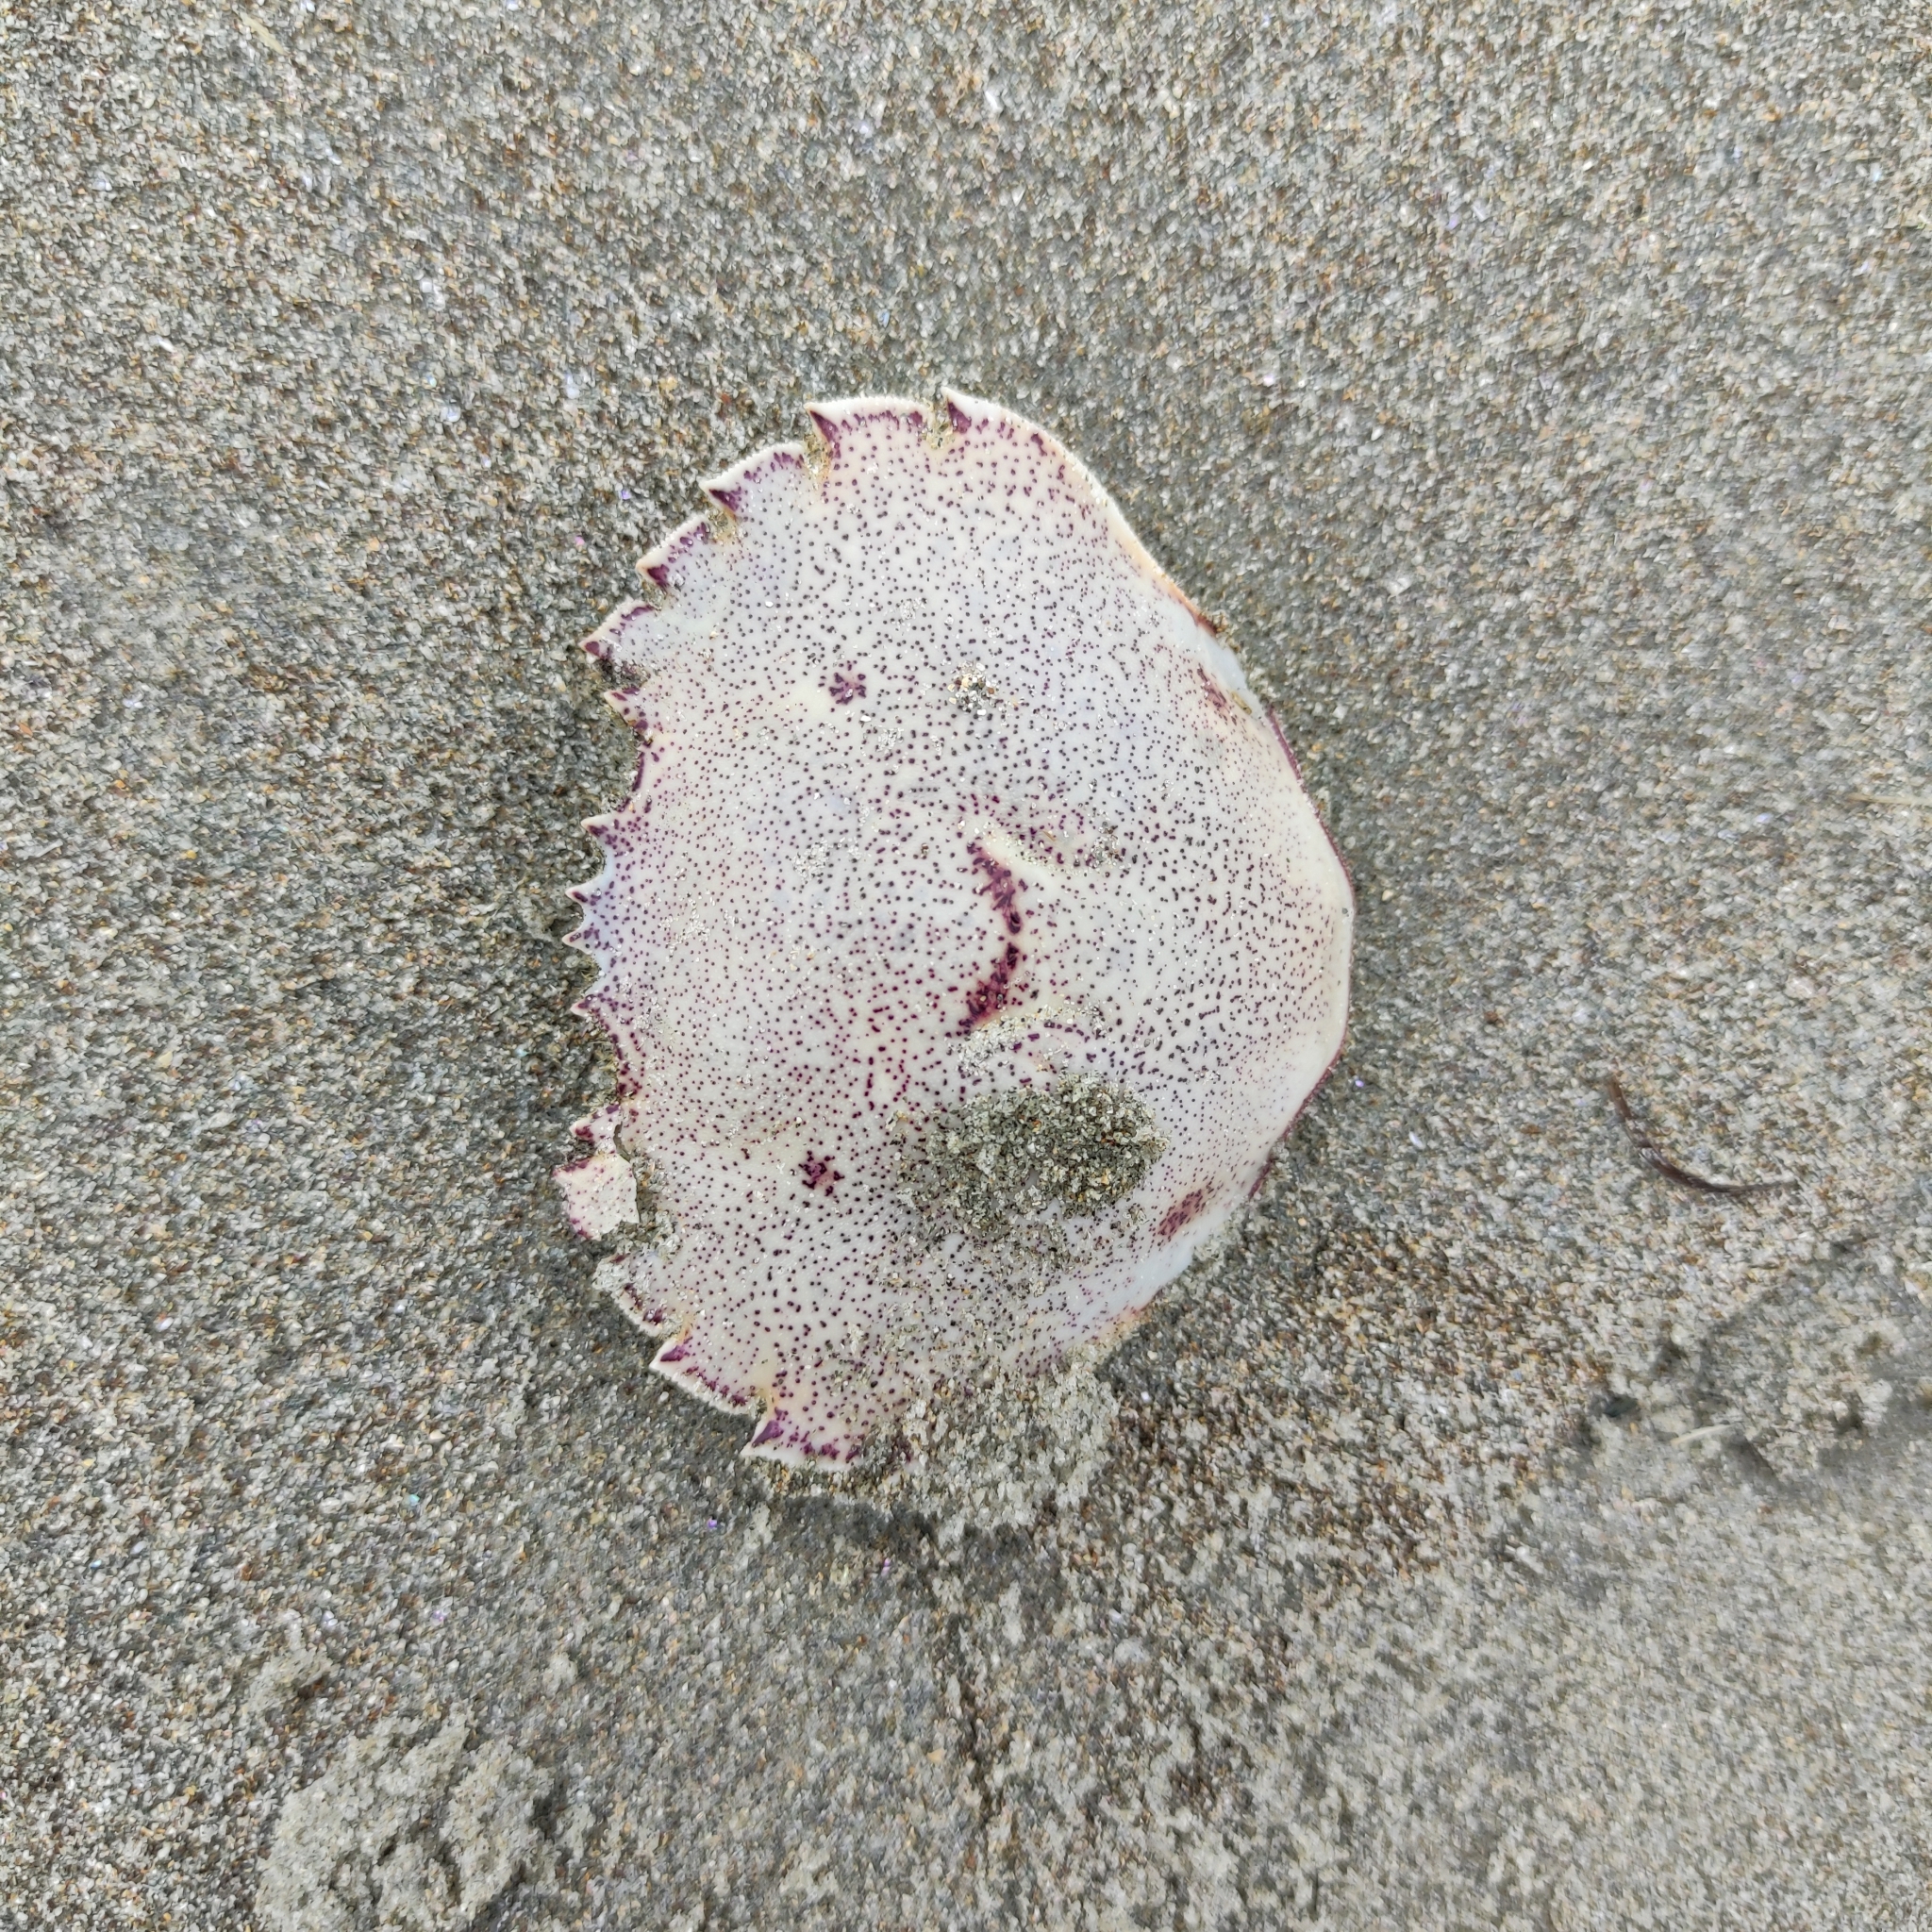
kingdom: Animalia
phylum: Arthropoda
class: Malacostraca
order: Decapoda
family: Ovalipidae
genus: Ovalipes
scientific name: Ovalipes catharus
